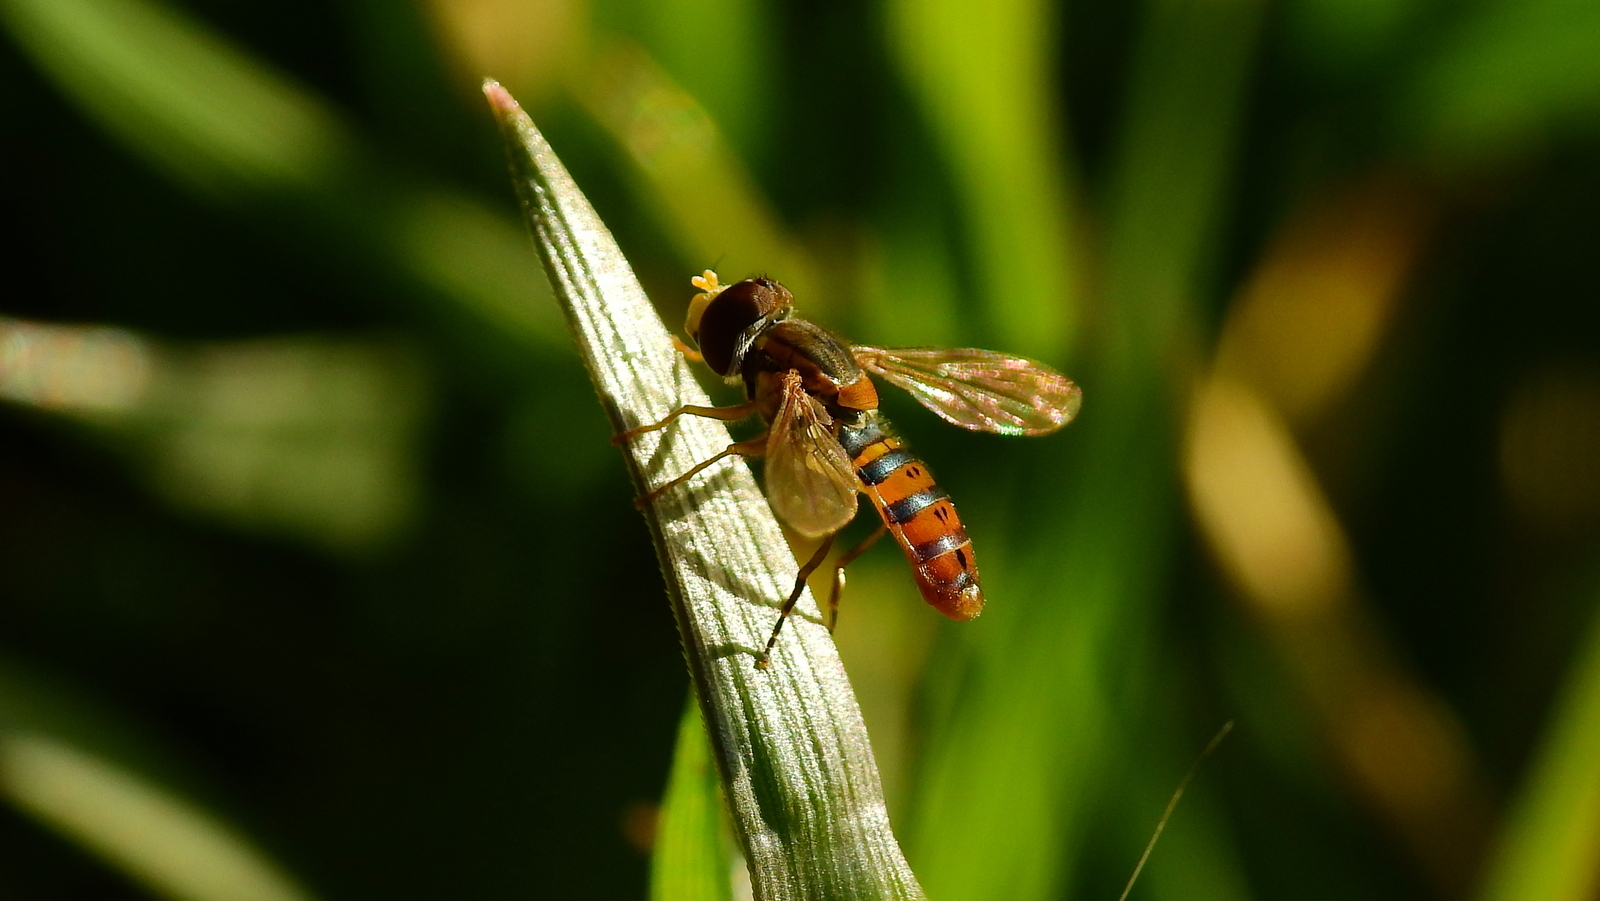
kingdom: Animalia
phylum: Arthropoda
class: Insecta
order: Diptera
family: Syrphidae
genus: Toxomerus
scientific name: Toxomerus
